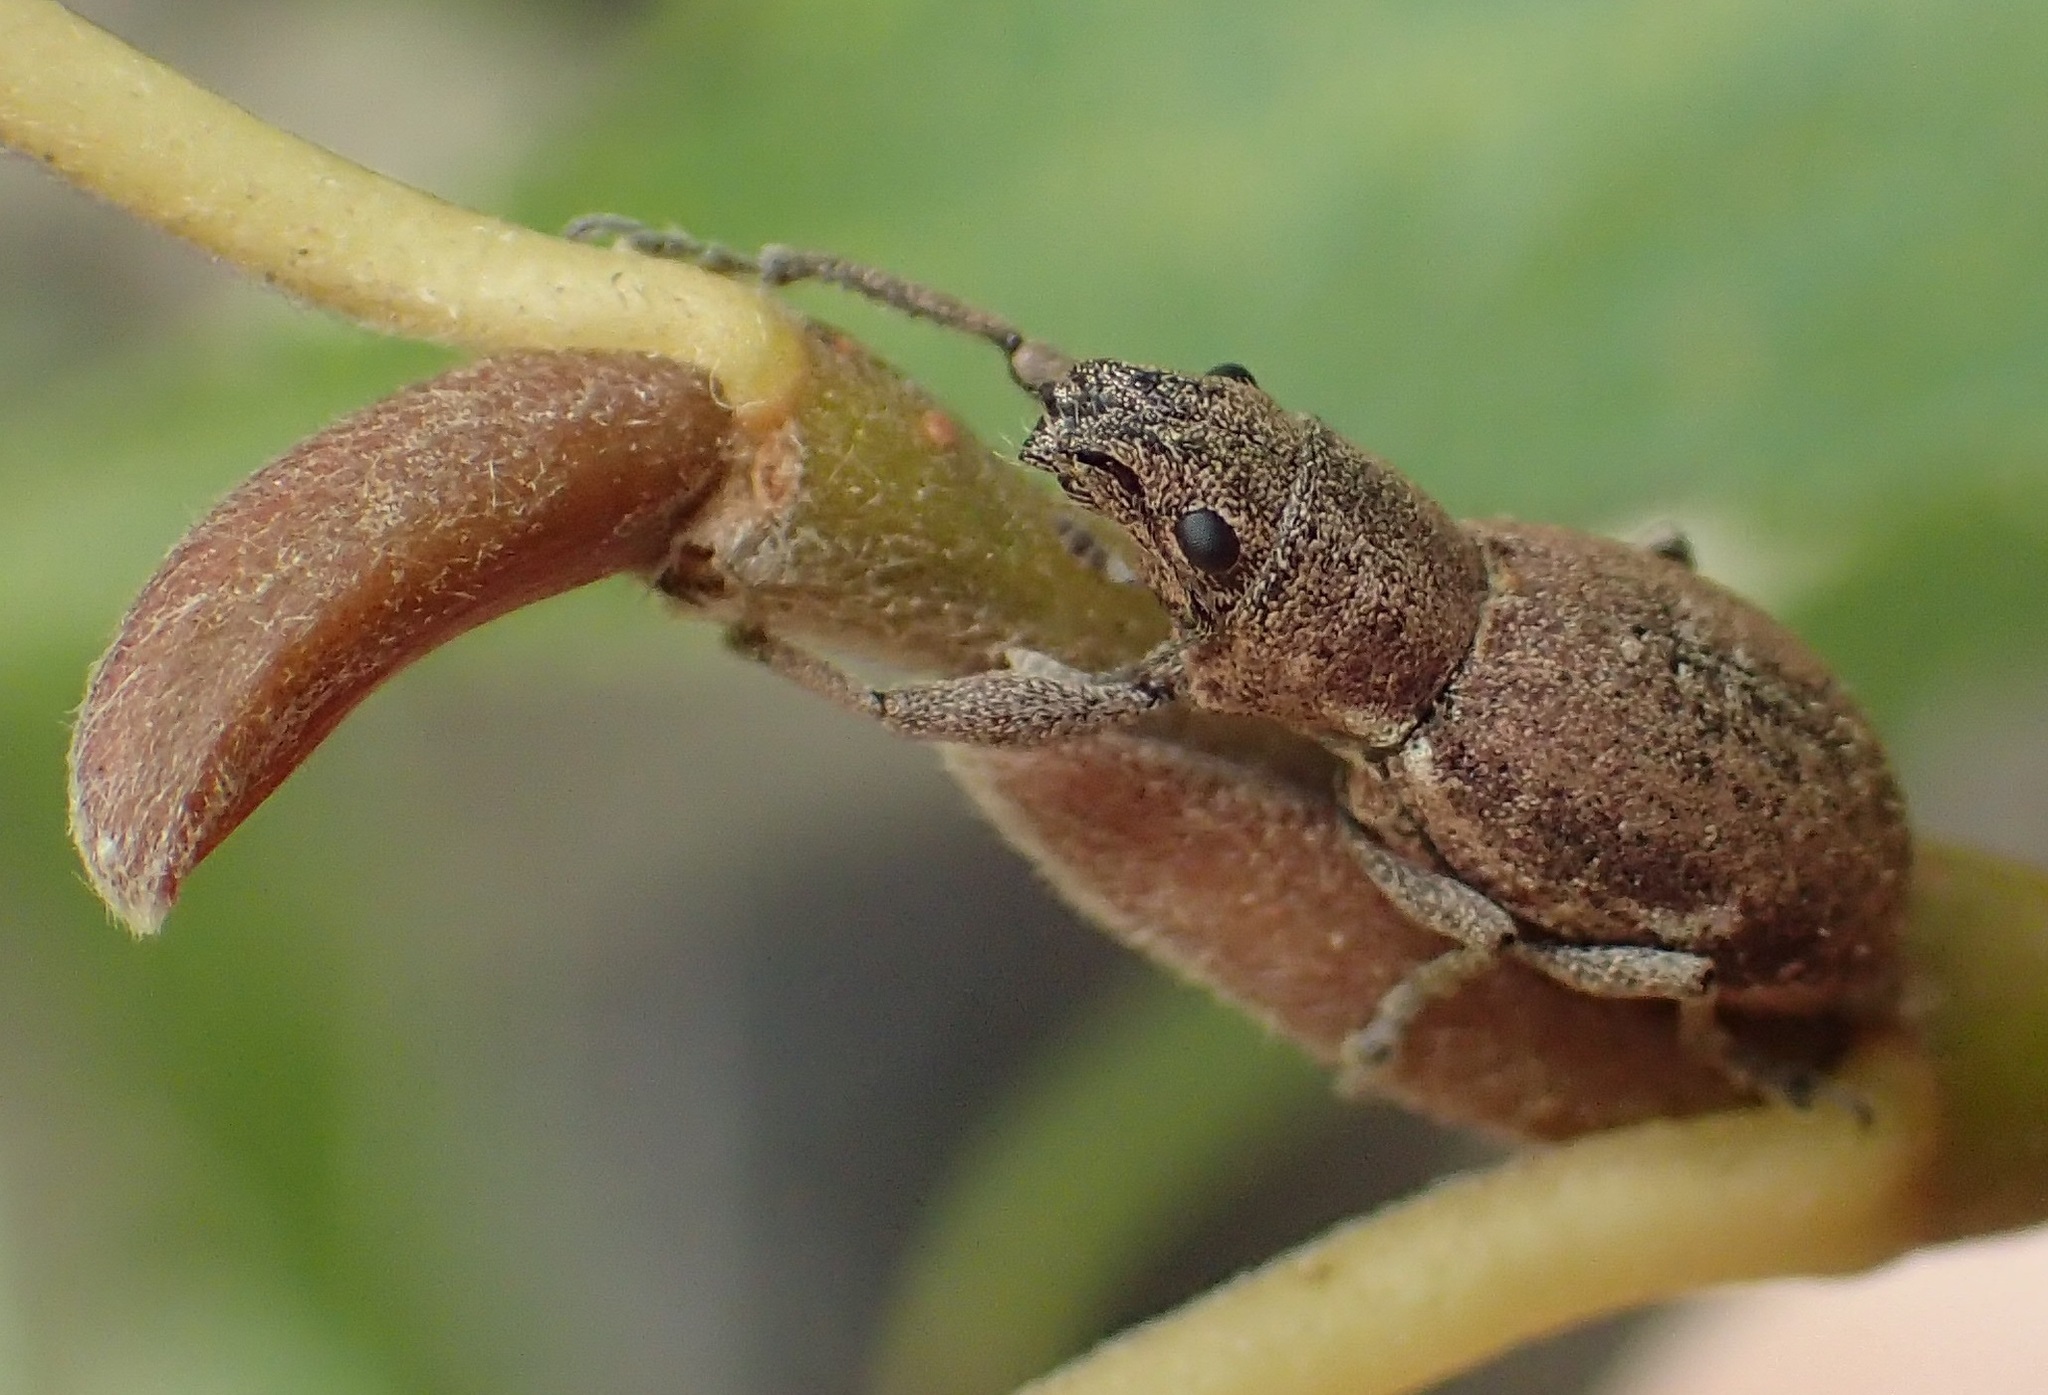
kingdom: Animalia
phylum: Arthropoda
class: Insecta
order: Coleoptera
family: Curculionidae
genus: Naupactus
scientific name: Naupactus cervinus
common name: Fuller rose beetle
